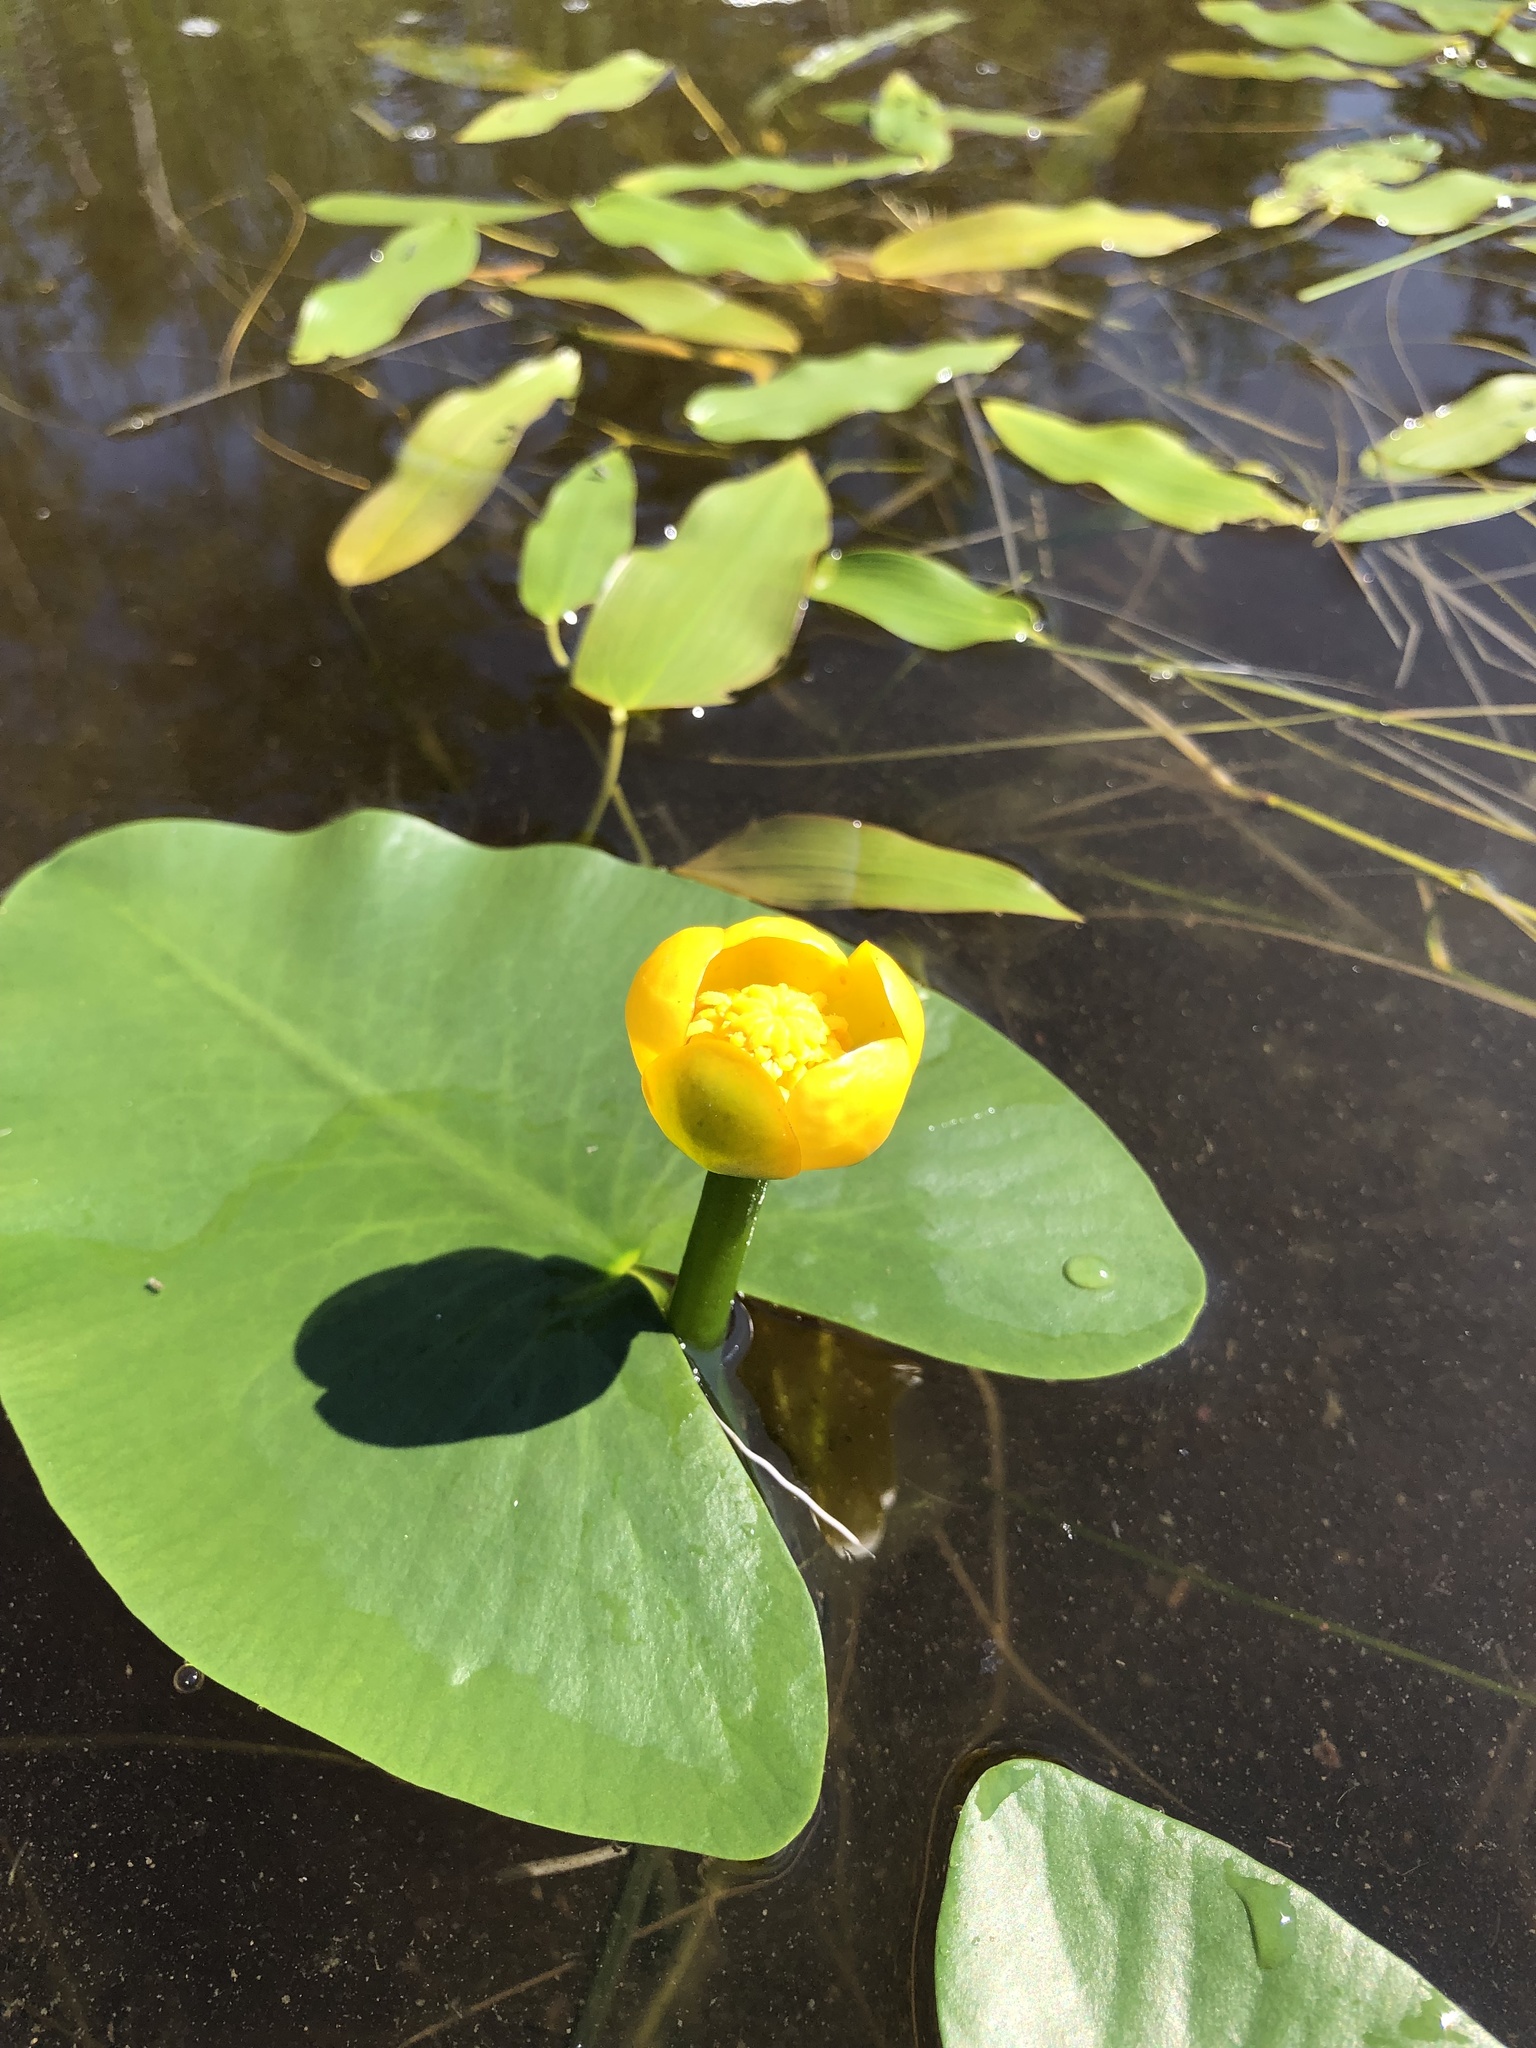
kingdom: Plantae
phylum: Tracheophyta
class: Magnoliopsida
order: Nymphaeales
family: Nymphaeaceae
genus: Nuphar
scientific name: Nuphar pumila
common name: Least water-lily
